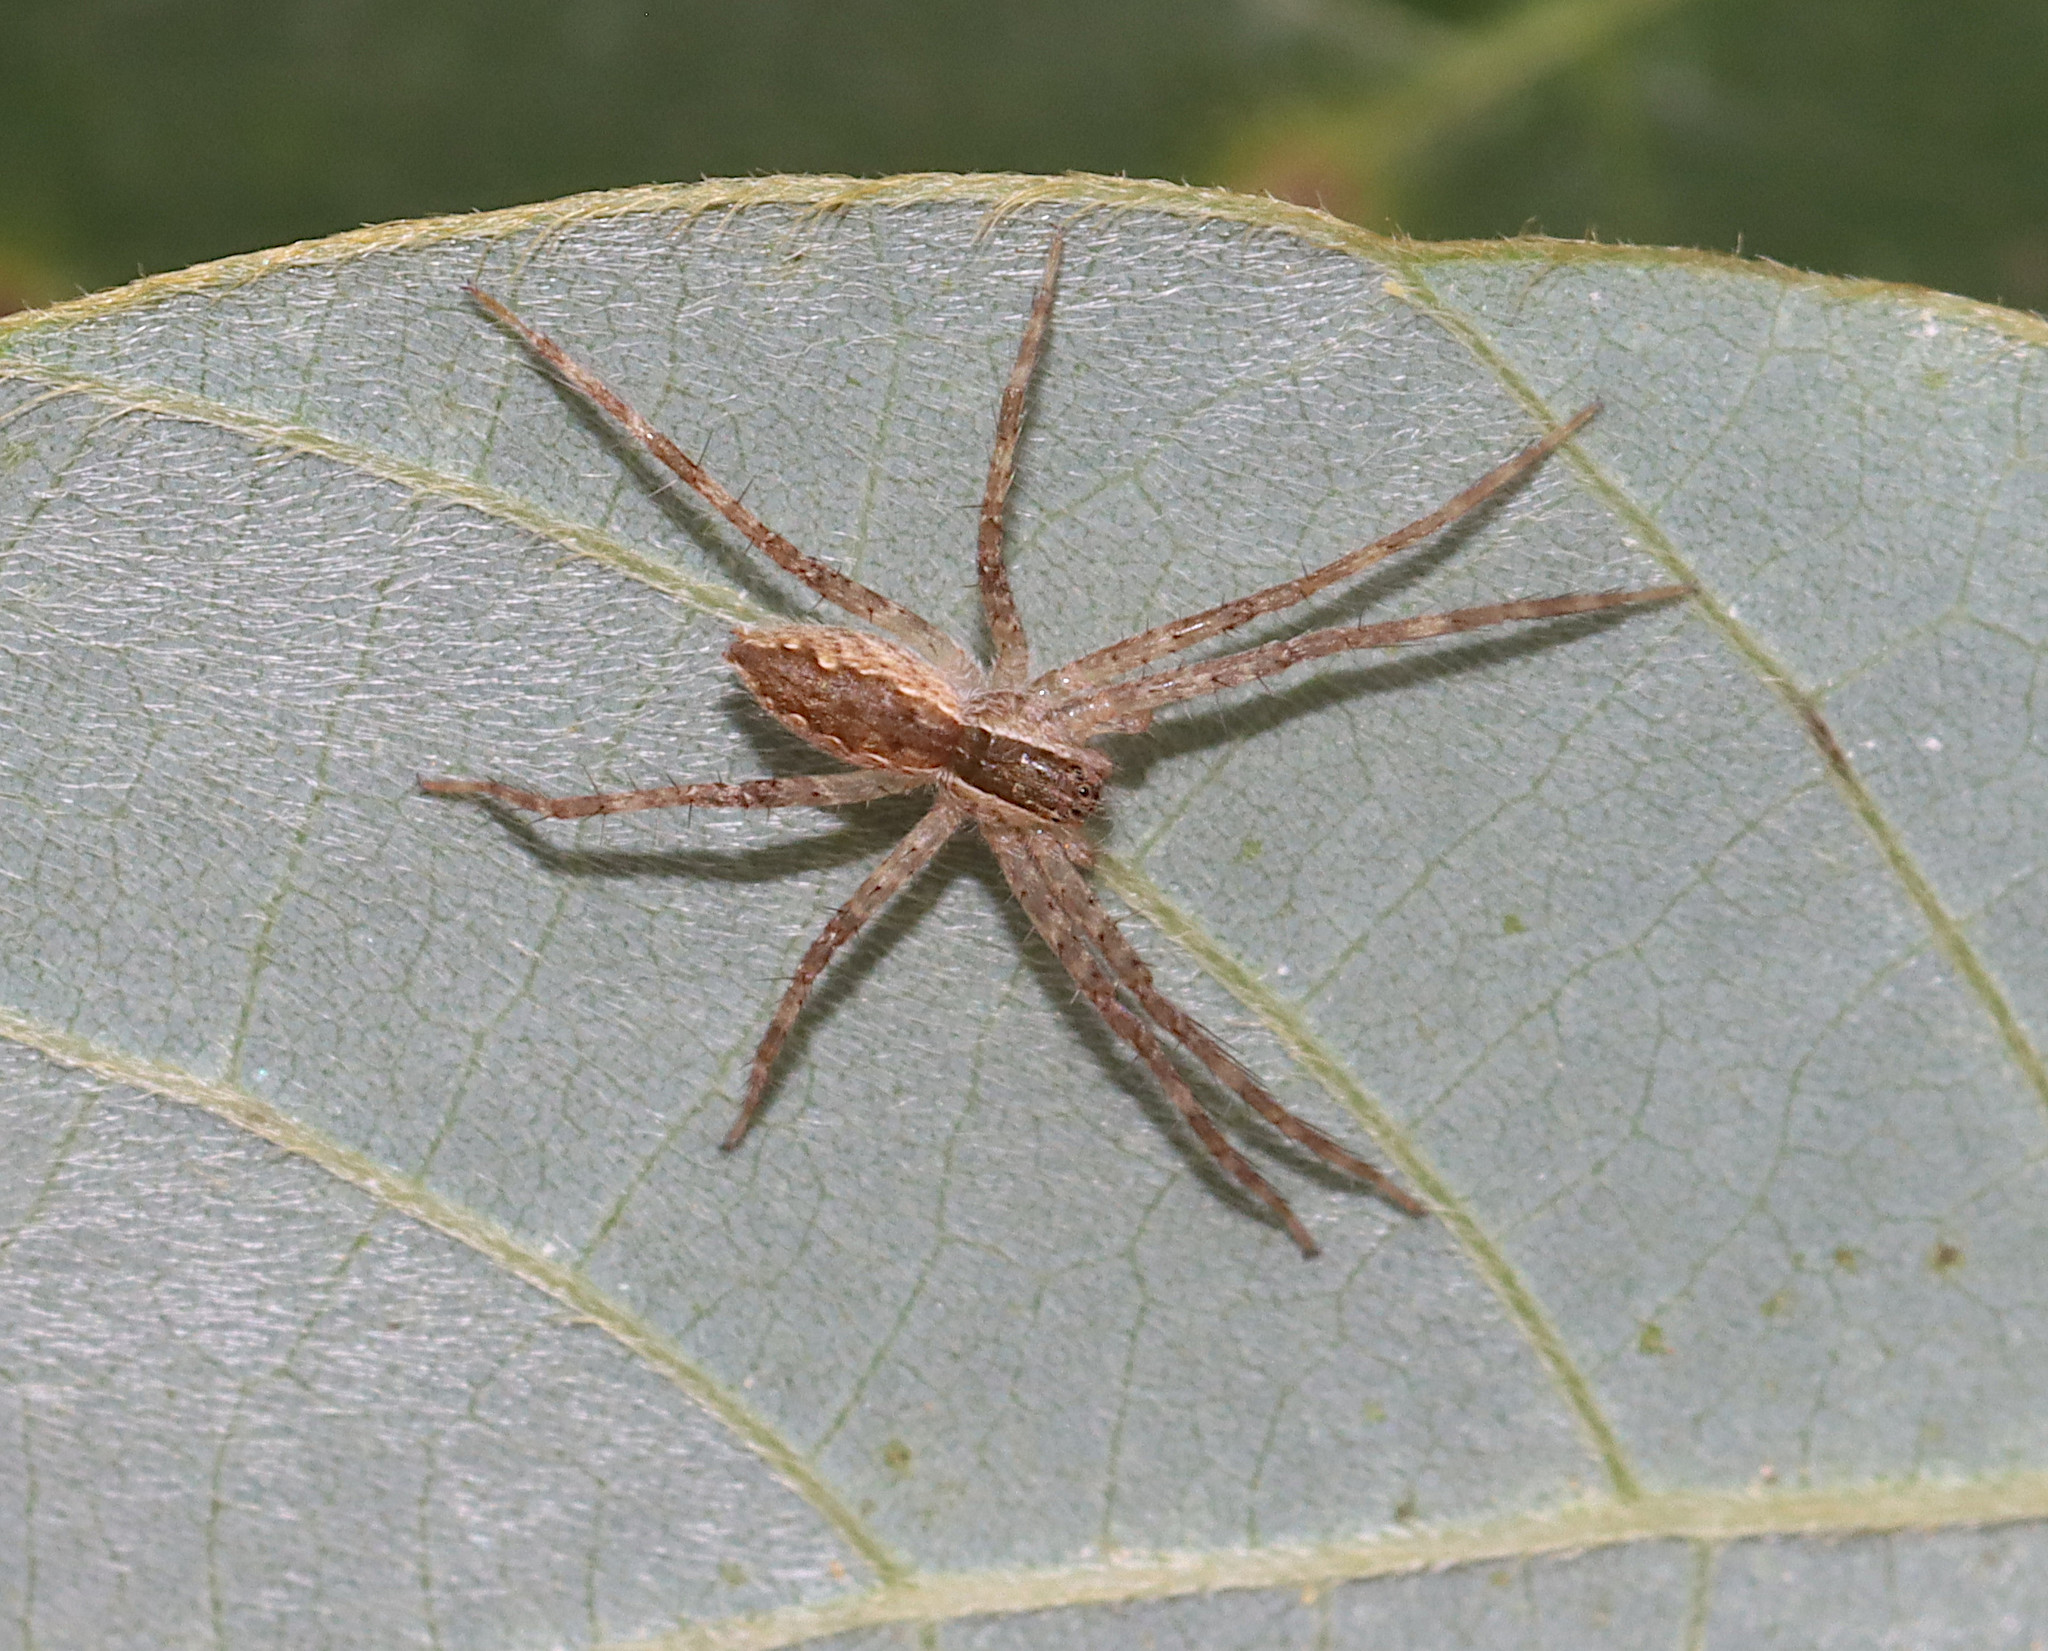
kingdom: Animalia
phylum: Arthropoda
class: Arachnida
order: Araneae
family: Pisauridae
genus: Pisaurina
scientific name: Pisaurina mira
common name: American nursery web spider
